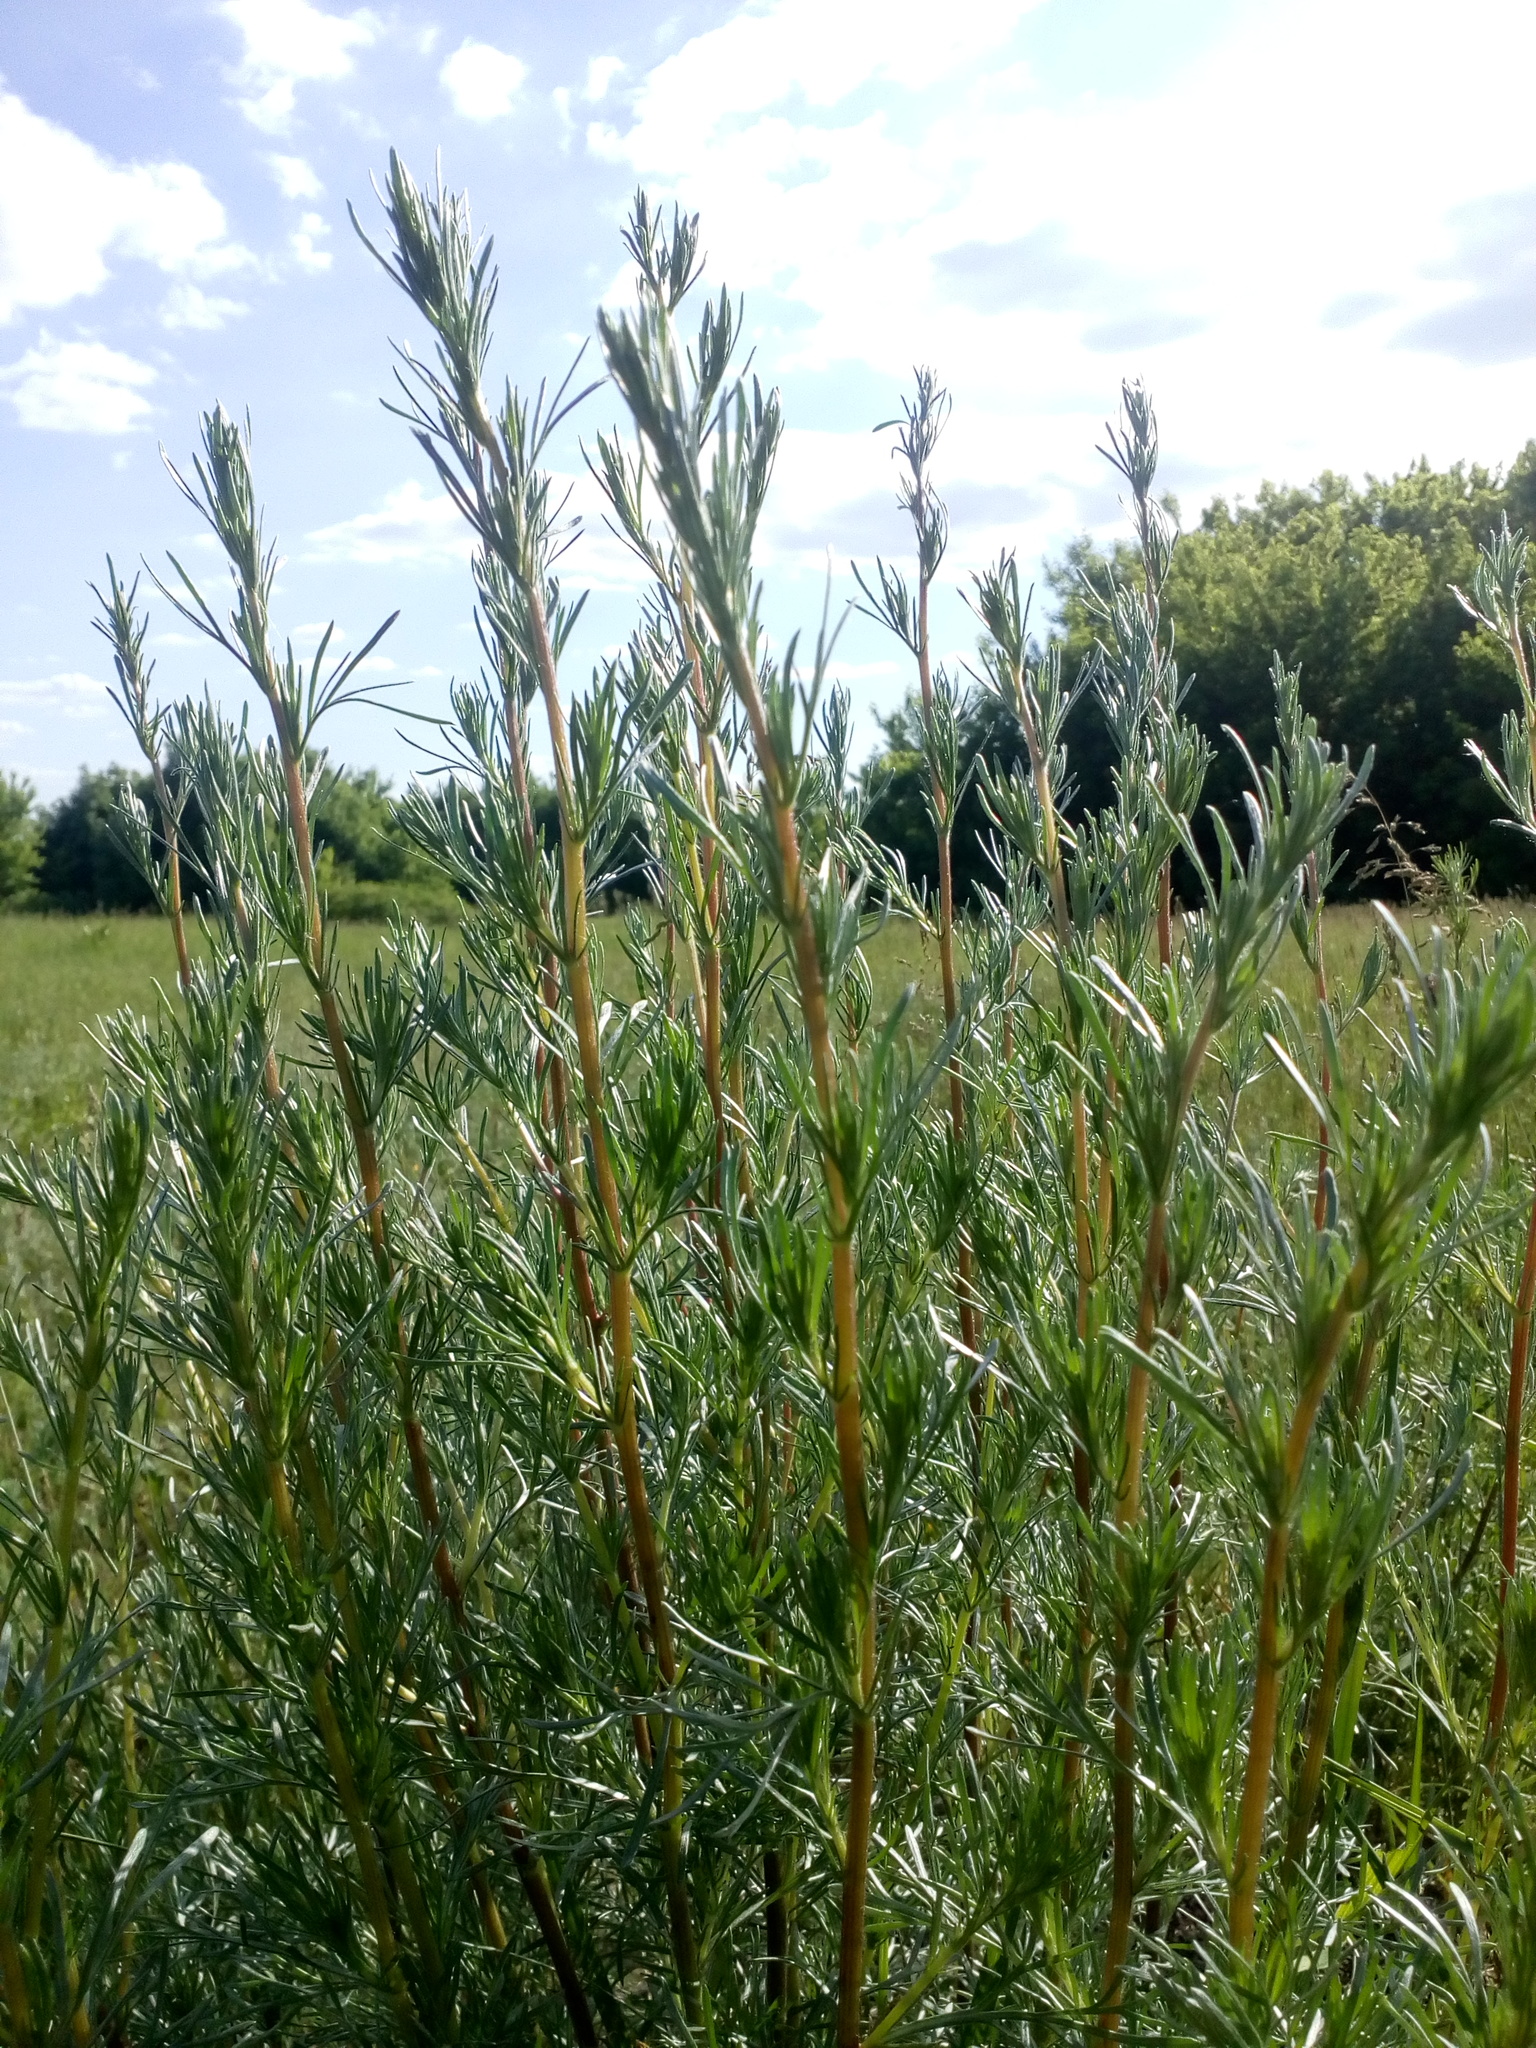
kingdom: Plantae
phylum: Tracheophyta
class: Magnoliopsida
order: Asterales
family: Asteraceae
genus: Artemisia
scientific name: Artemisia campestris
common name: Field wormwood
